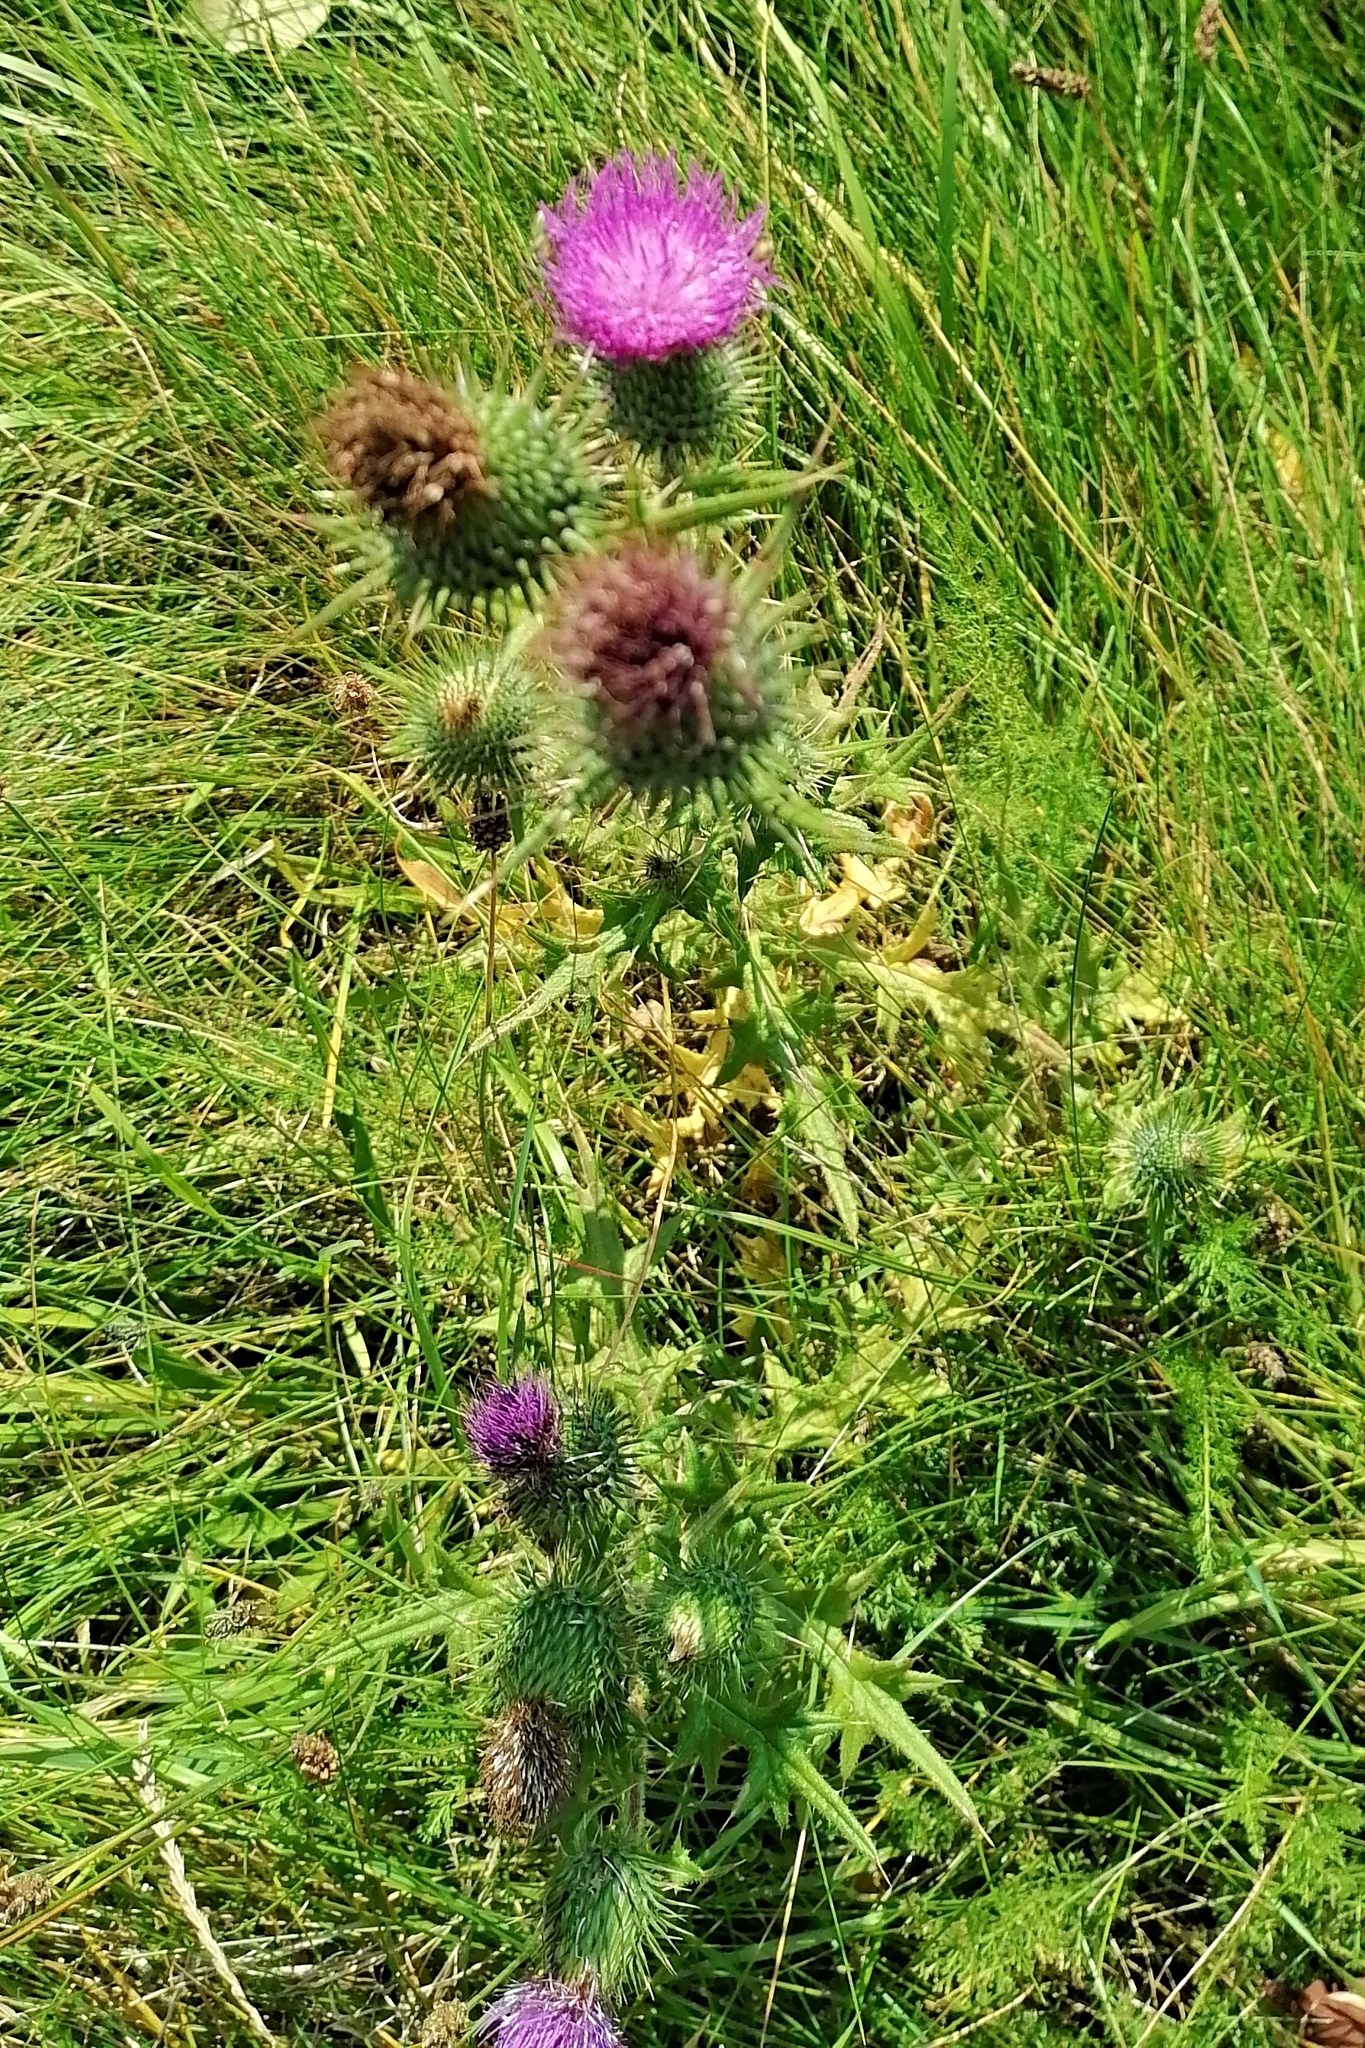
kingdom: Plantae
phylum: Tracheophyta
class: Magnoliopsida
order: Asterales
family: Asteraceae
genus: Cirsium
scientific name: Cirsium vulgare
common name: Bull thistle
